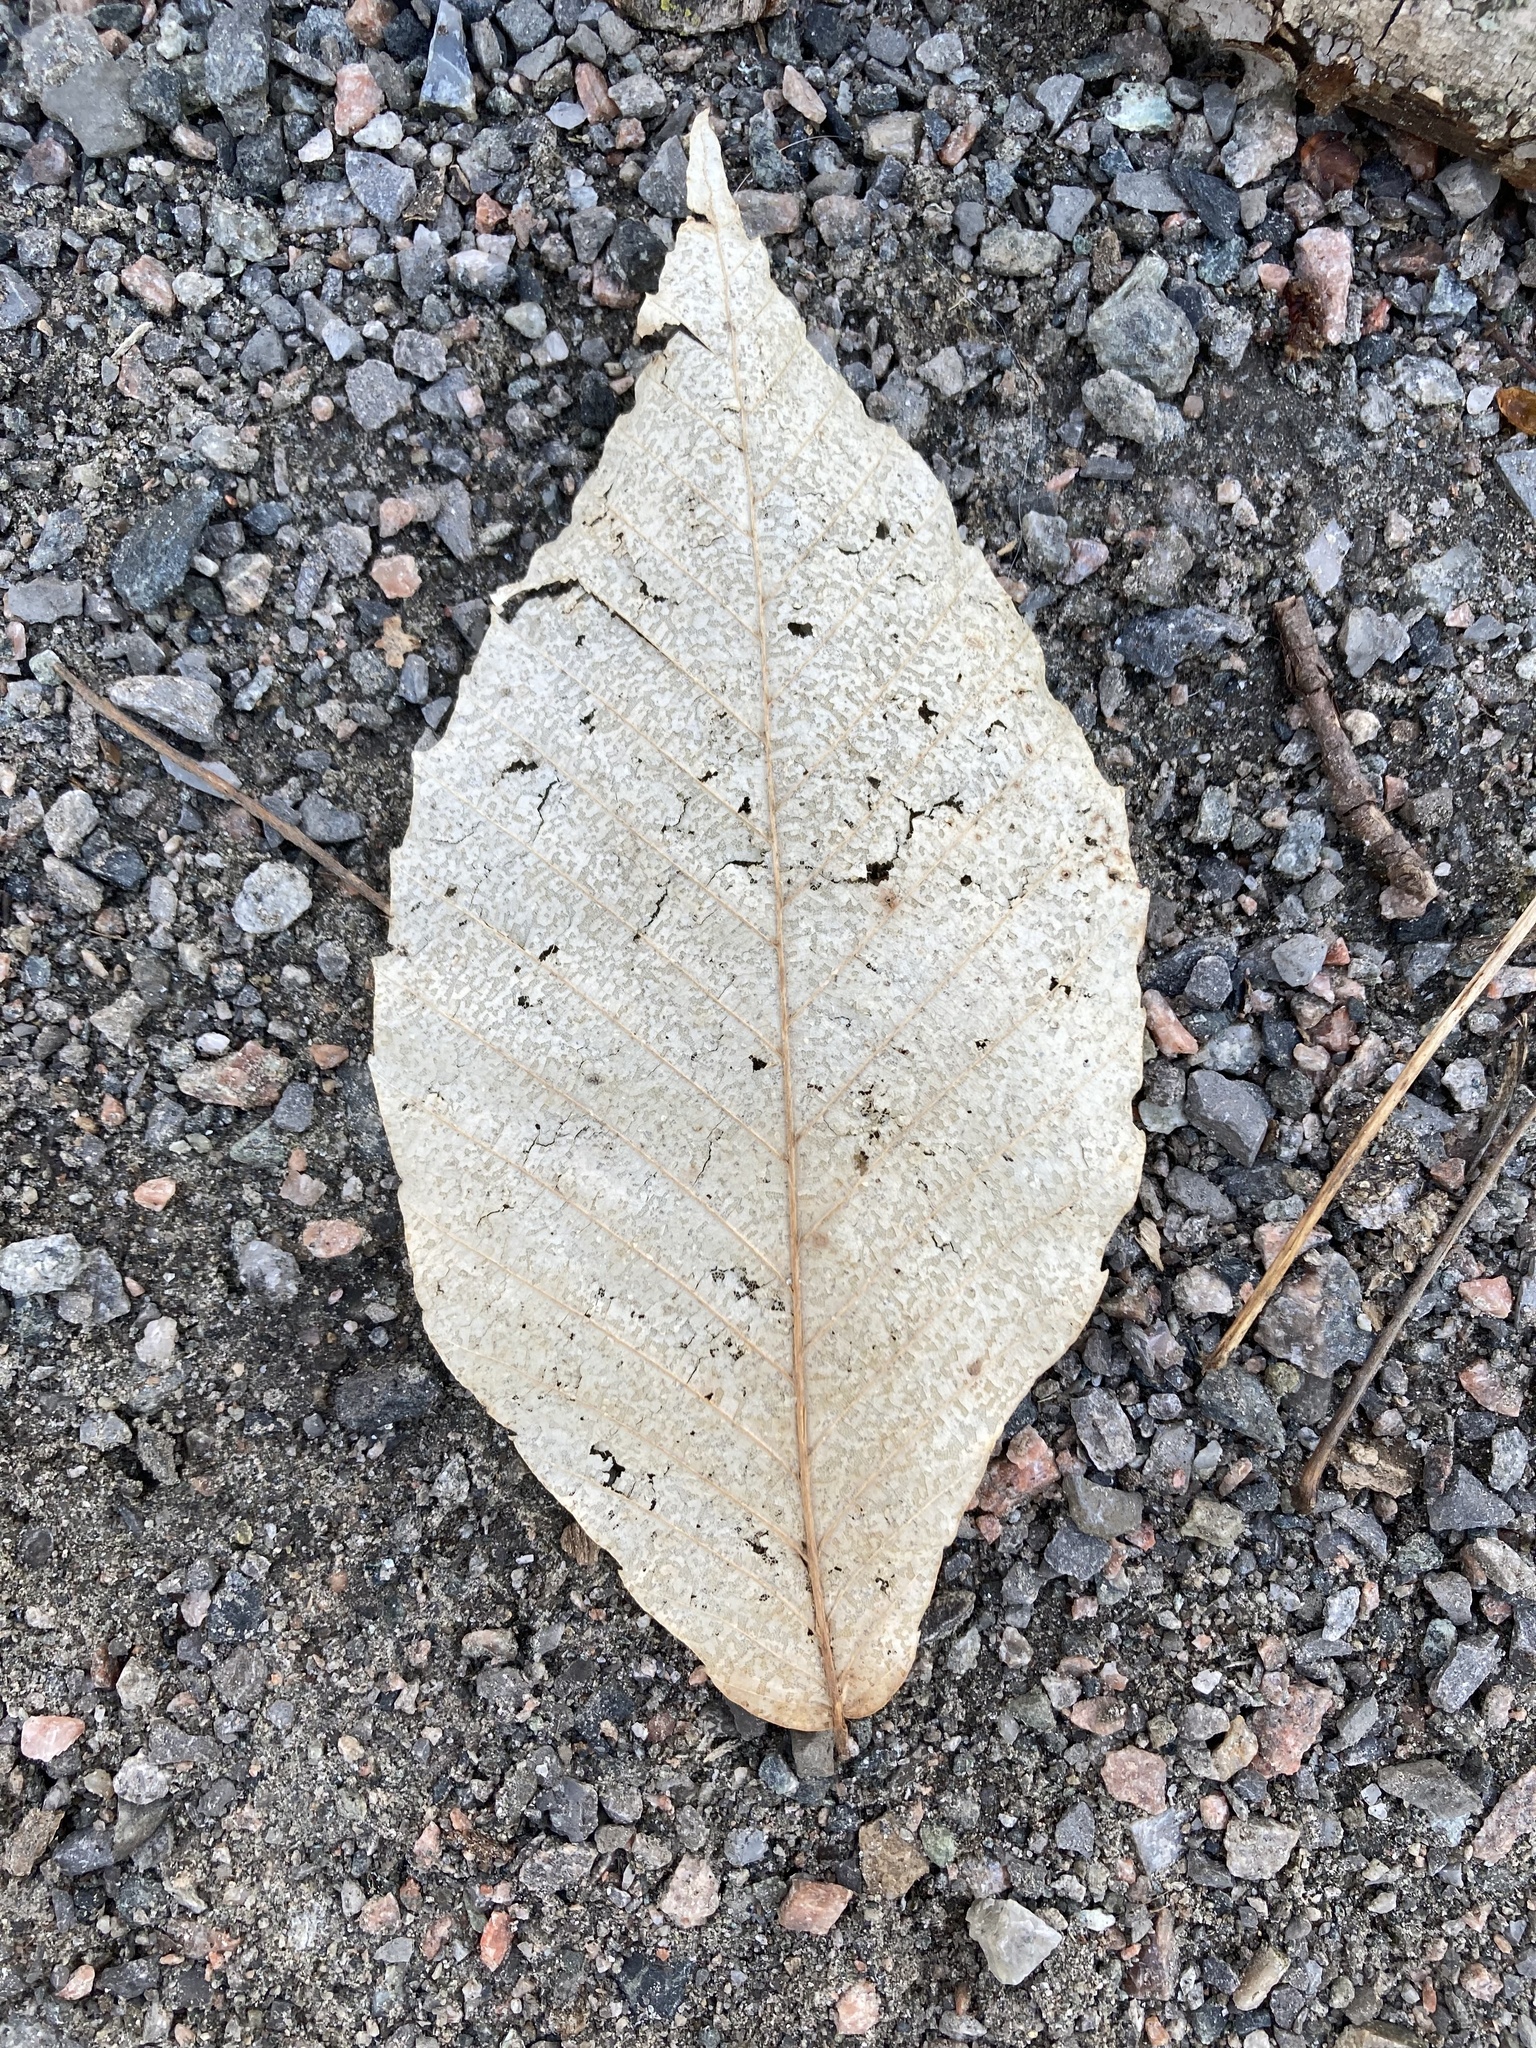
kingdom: Plantae
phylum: Tracheophyta
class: Magnoliopsida
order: Fagales
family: Fagaceae
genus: Fagus
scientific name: Fagus grandifolia
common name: American beech
